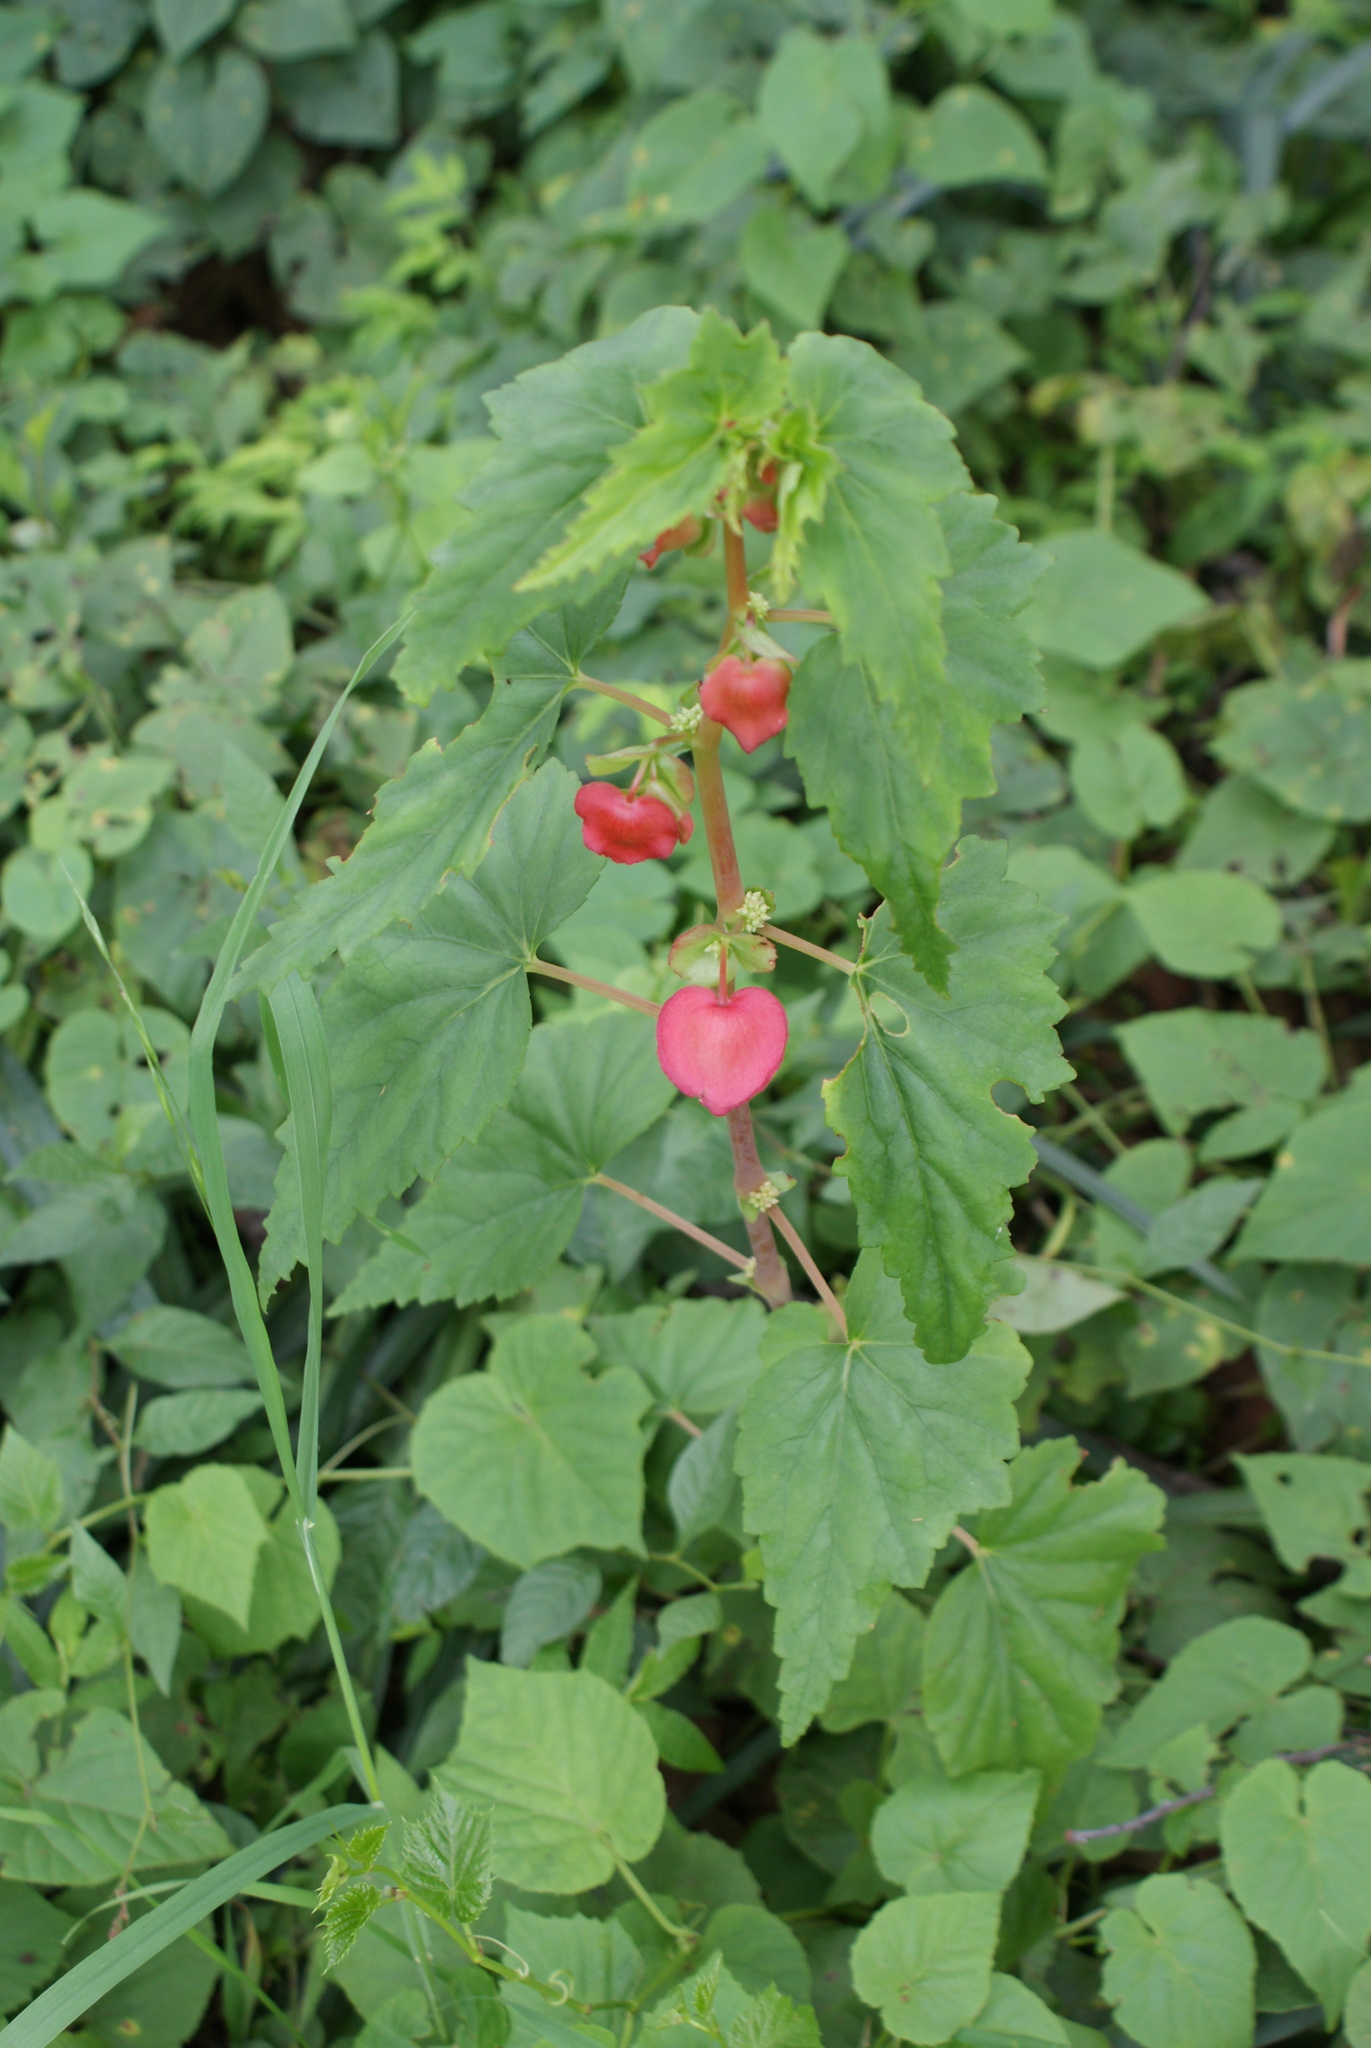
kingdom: Plantae
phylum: Tracheophyta
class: Magnoliopsida
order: Cucurbitales
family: Begoniaceae
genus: Begonia
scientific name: Begonia gracilis
